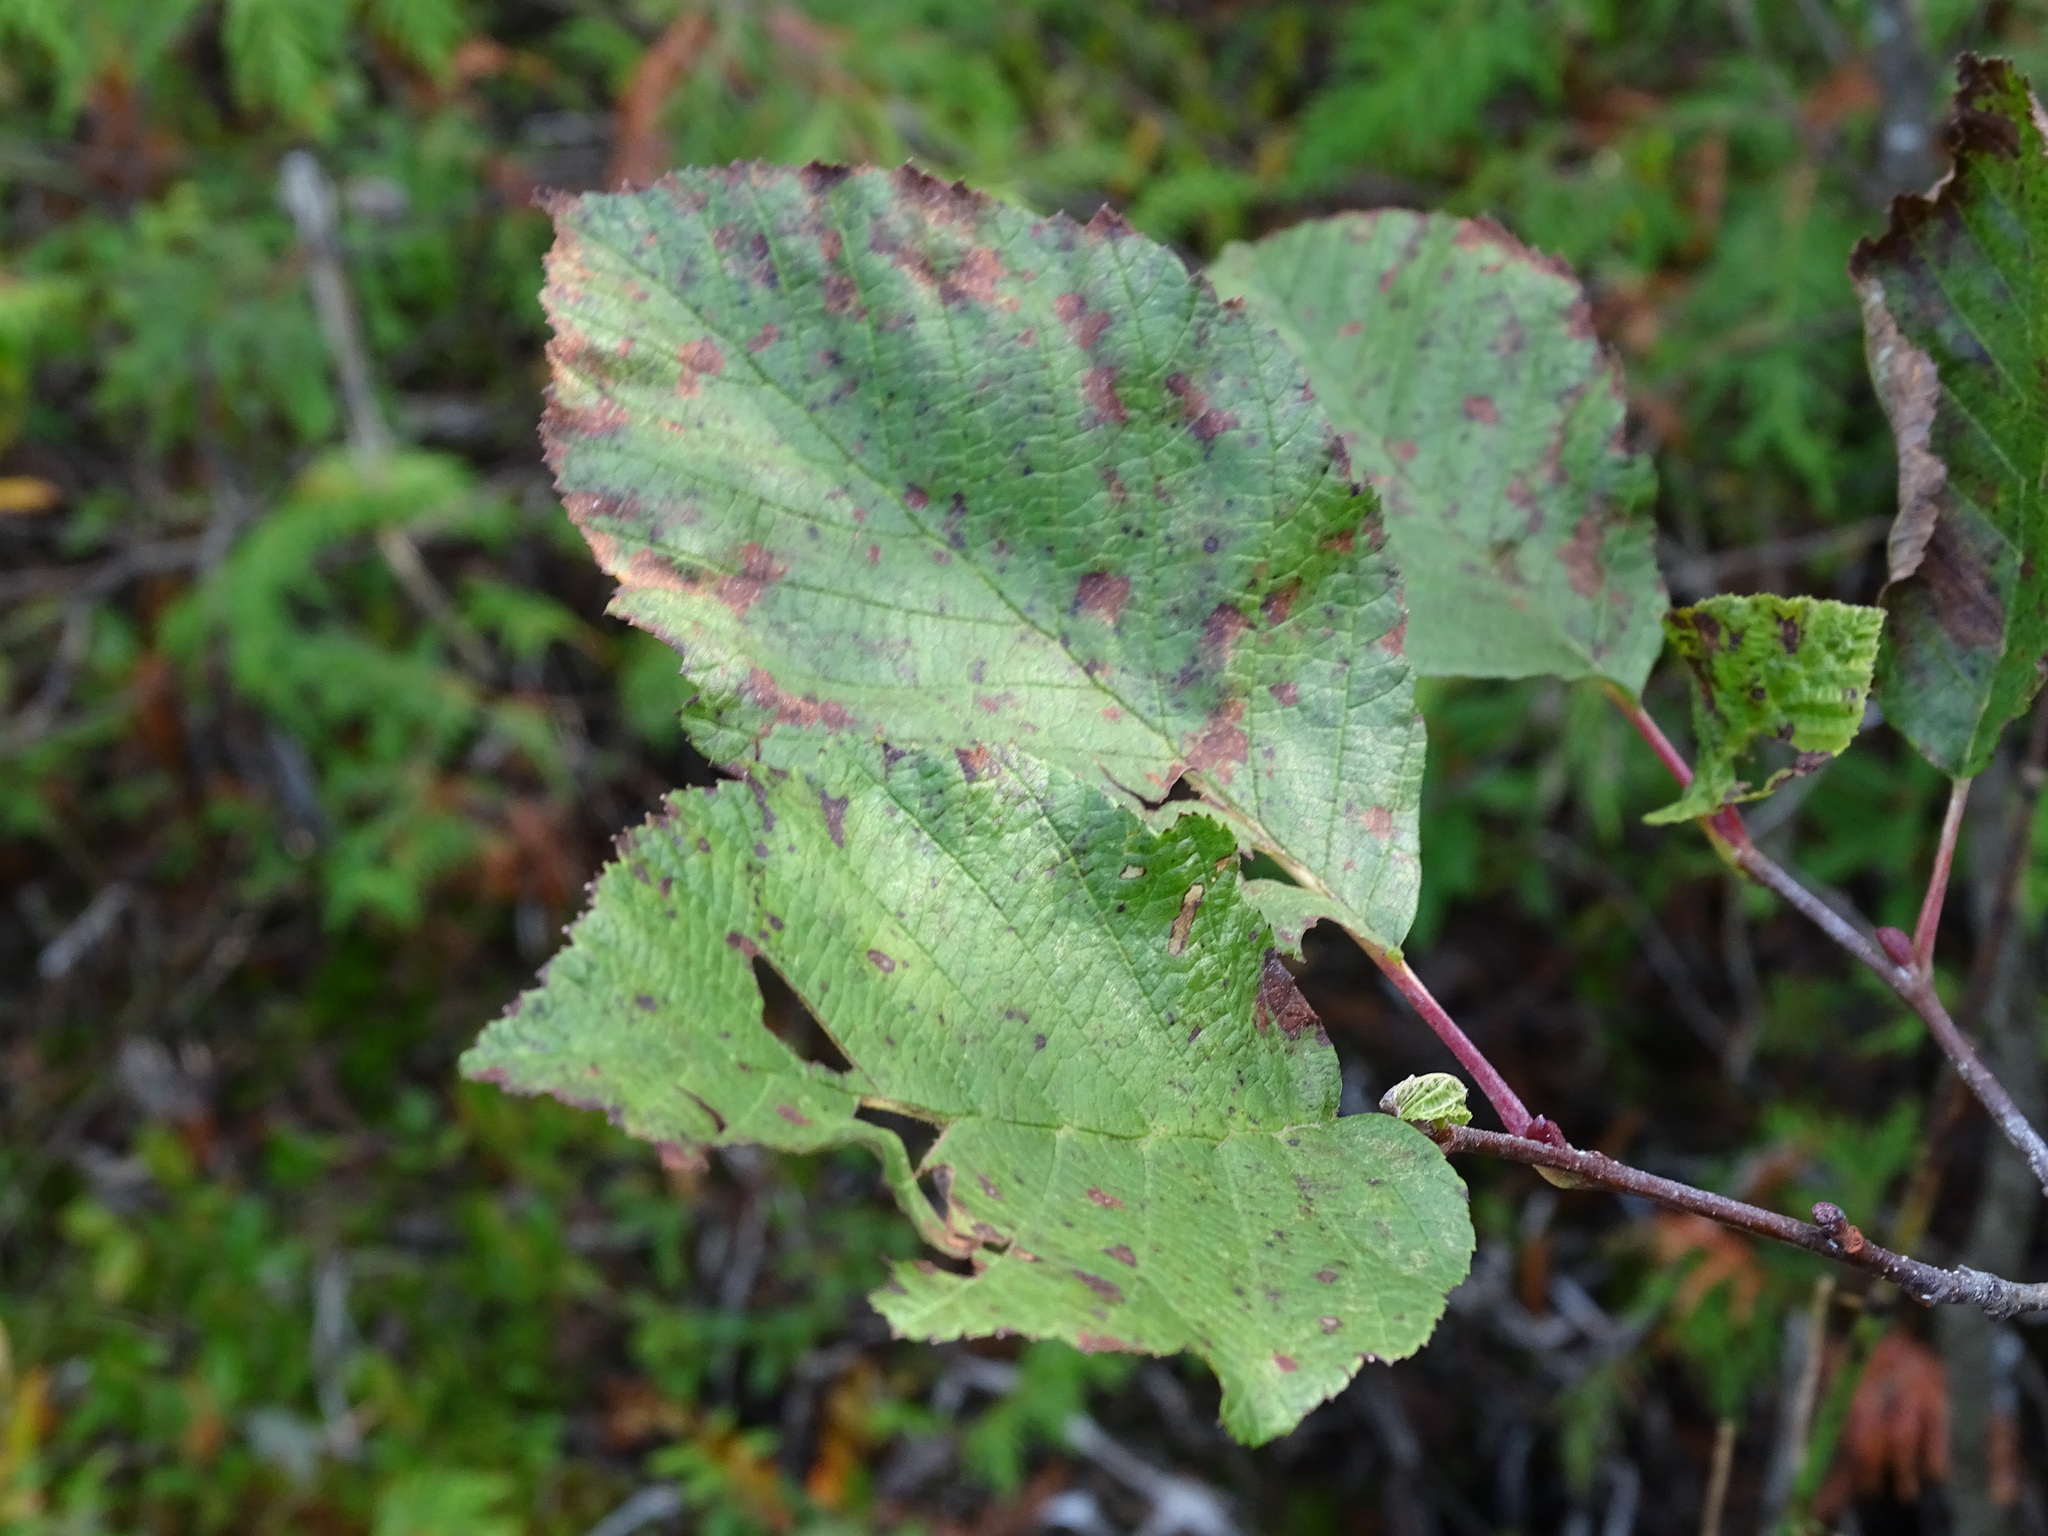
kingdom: Plantae
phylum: Tracheophyta
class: Magnoliopsida
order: Fagales
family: Betulaceae
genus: Alnus
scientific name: Alnus incana
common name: Grey alder
